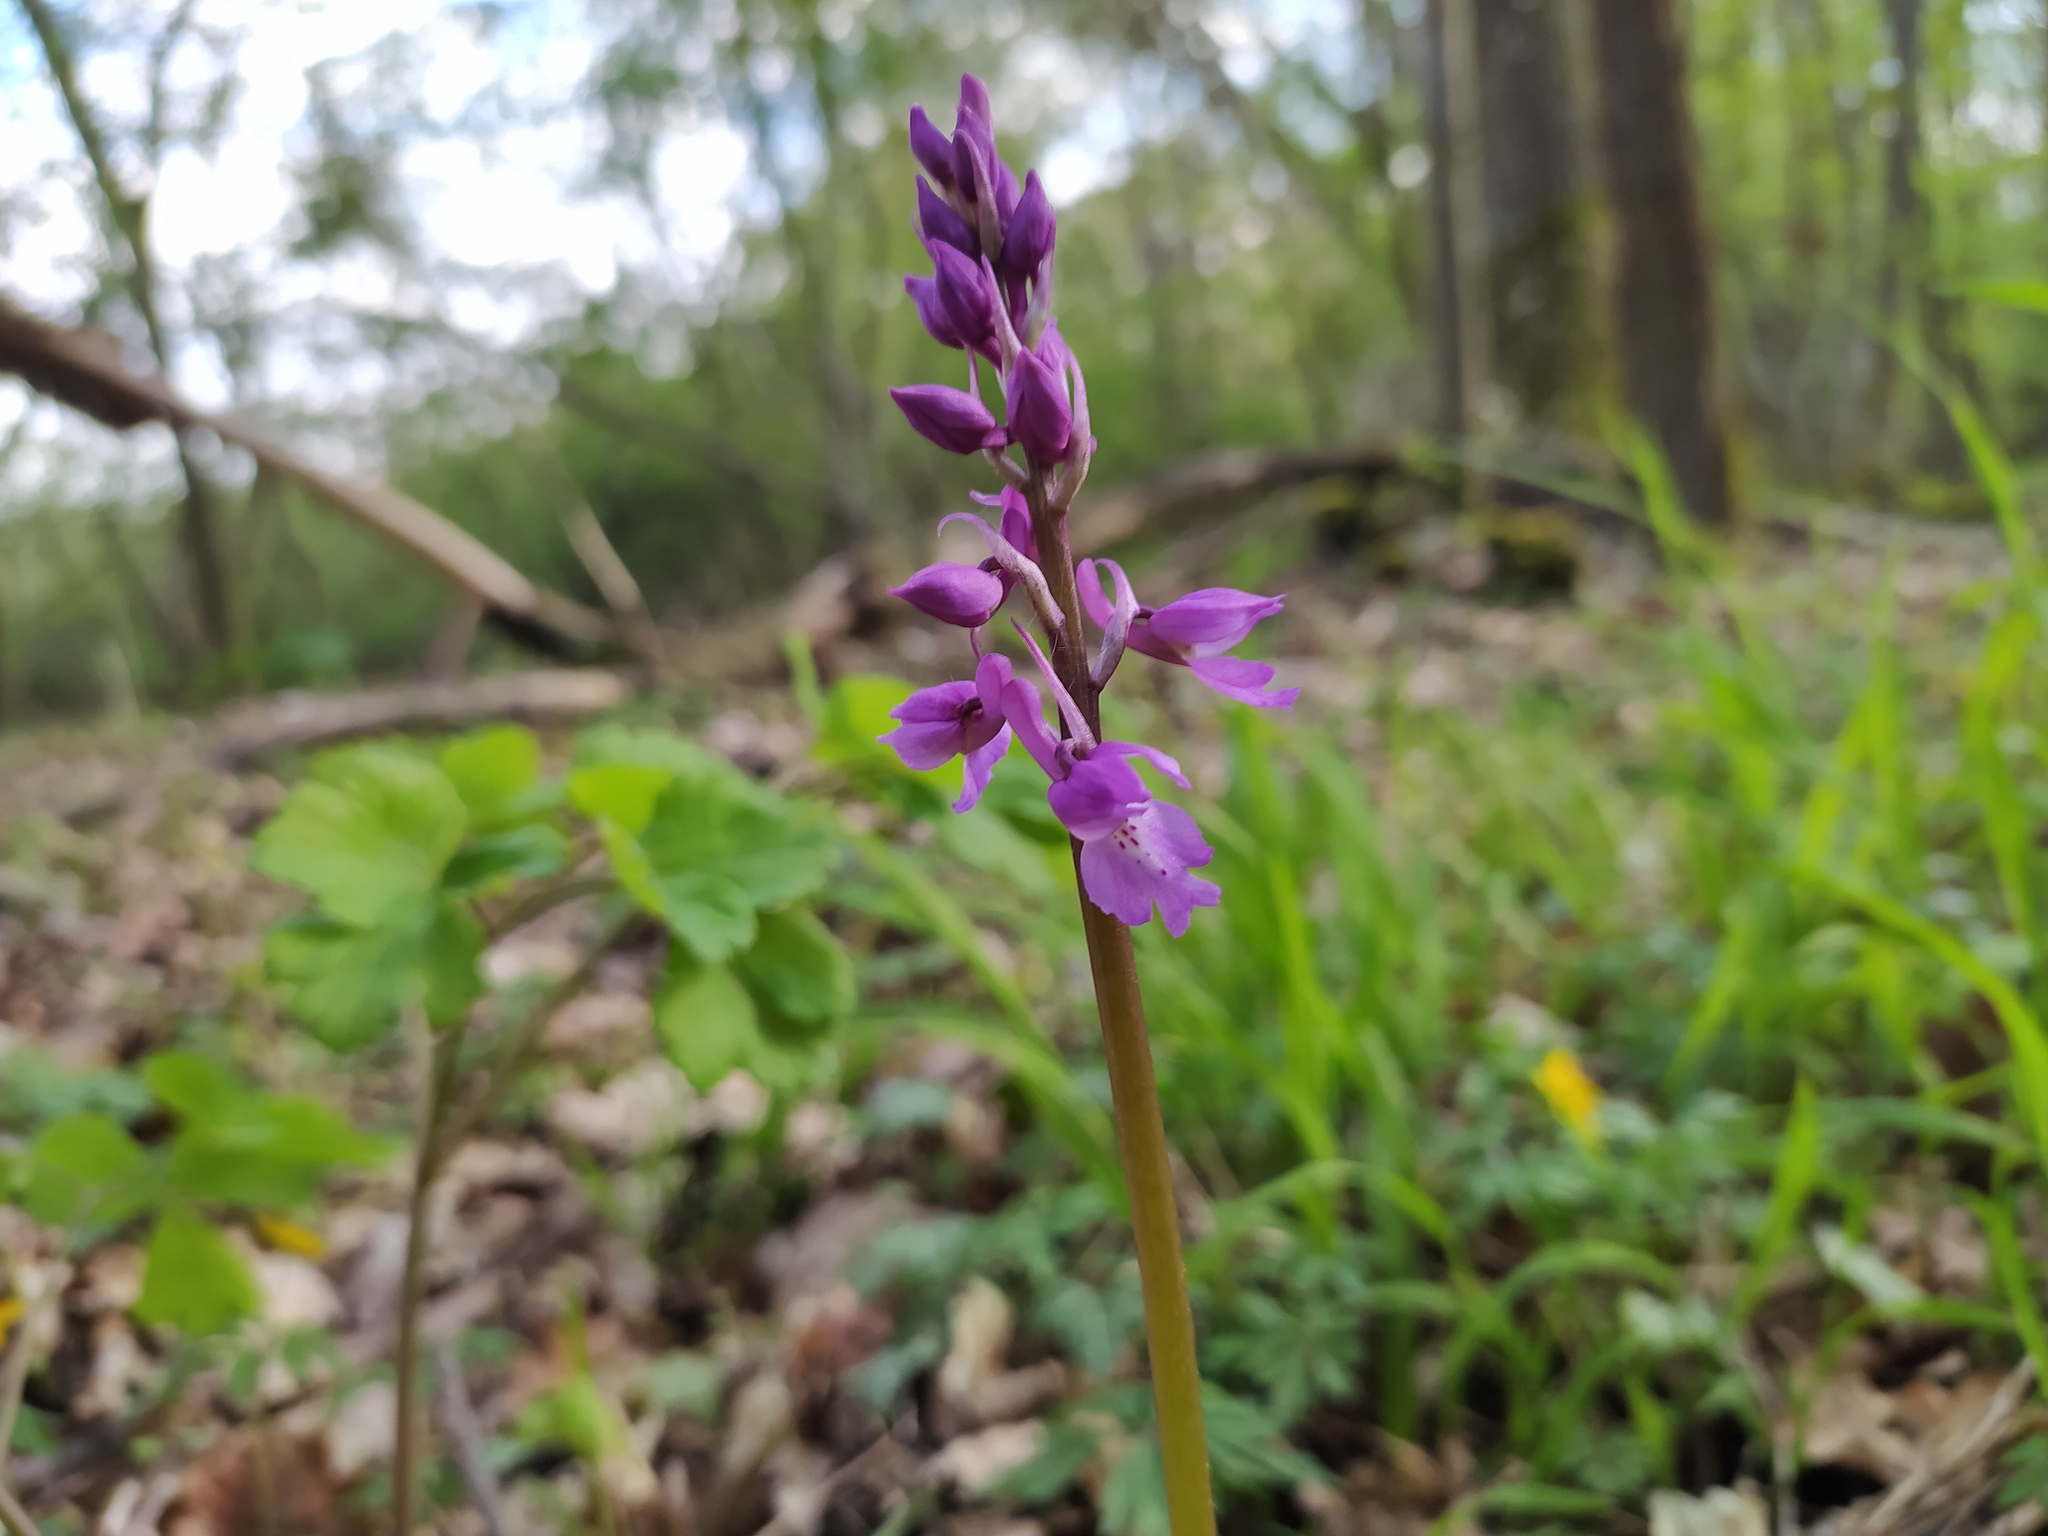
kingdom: Plantae
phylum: Tracheophyta
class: Liliopsida
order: Asparagales
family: Orchidaceae
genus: Orchis
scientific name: Orchis mascula
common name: Early-purple orchid
